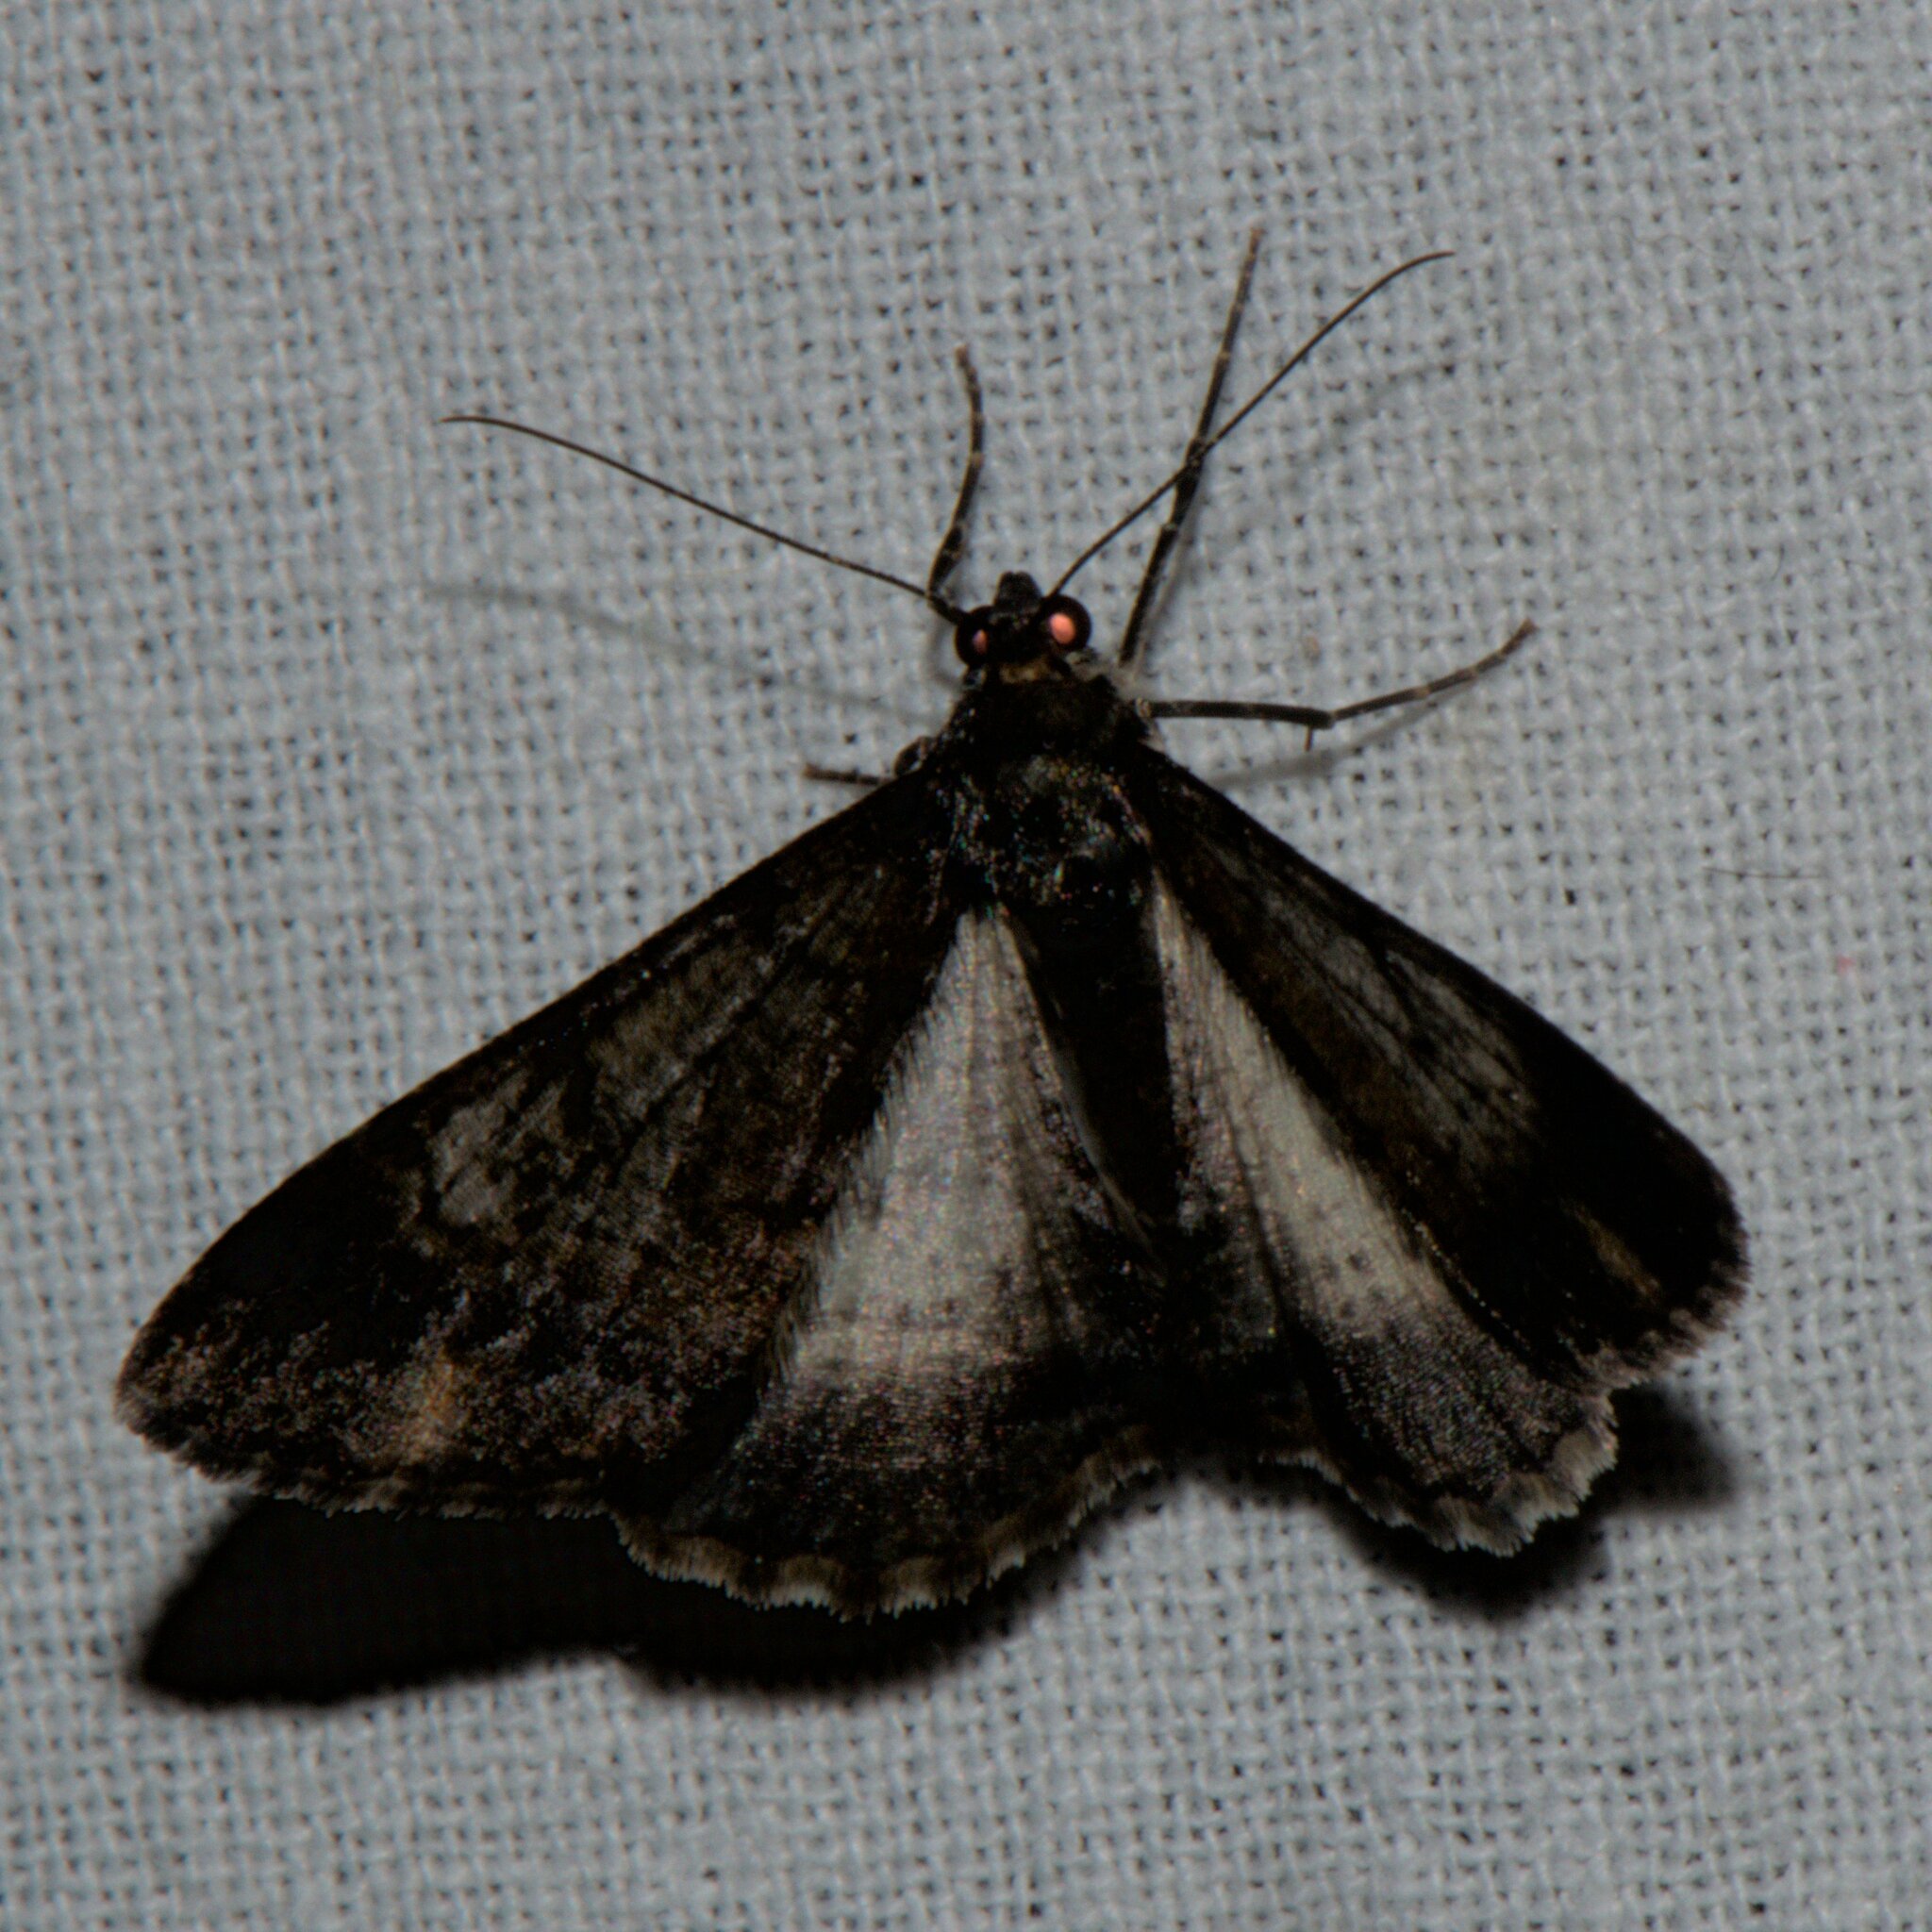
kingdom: Animalia
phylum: Arthropoda
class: Insecta
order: Lepidoptera
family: Geometridae
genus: Alcis
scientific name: Alcis semialba
